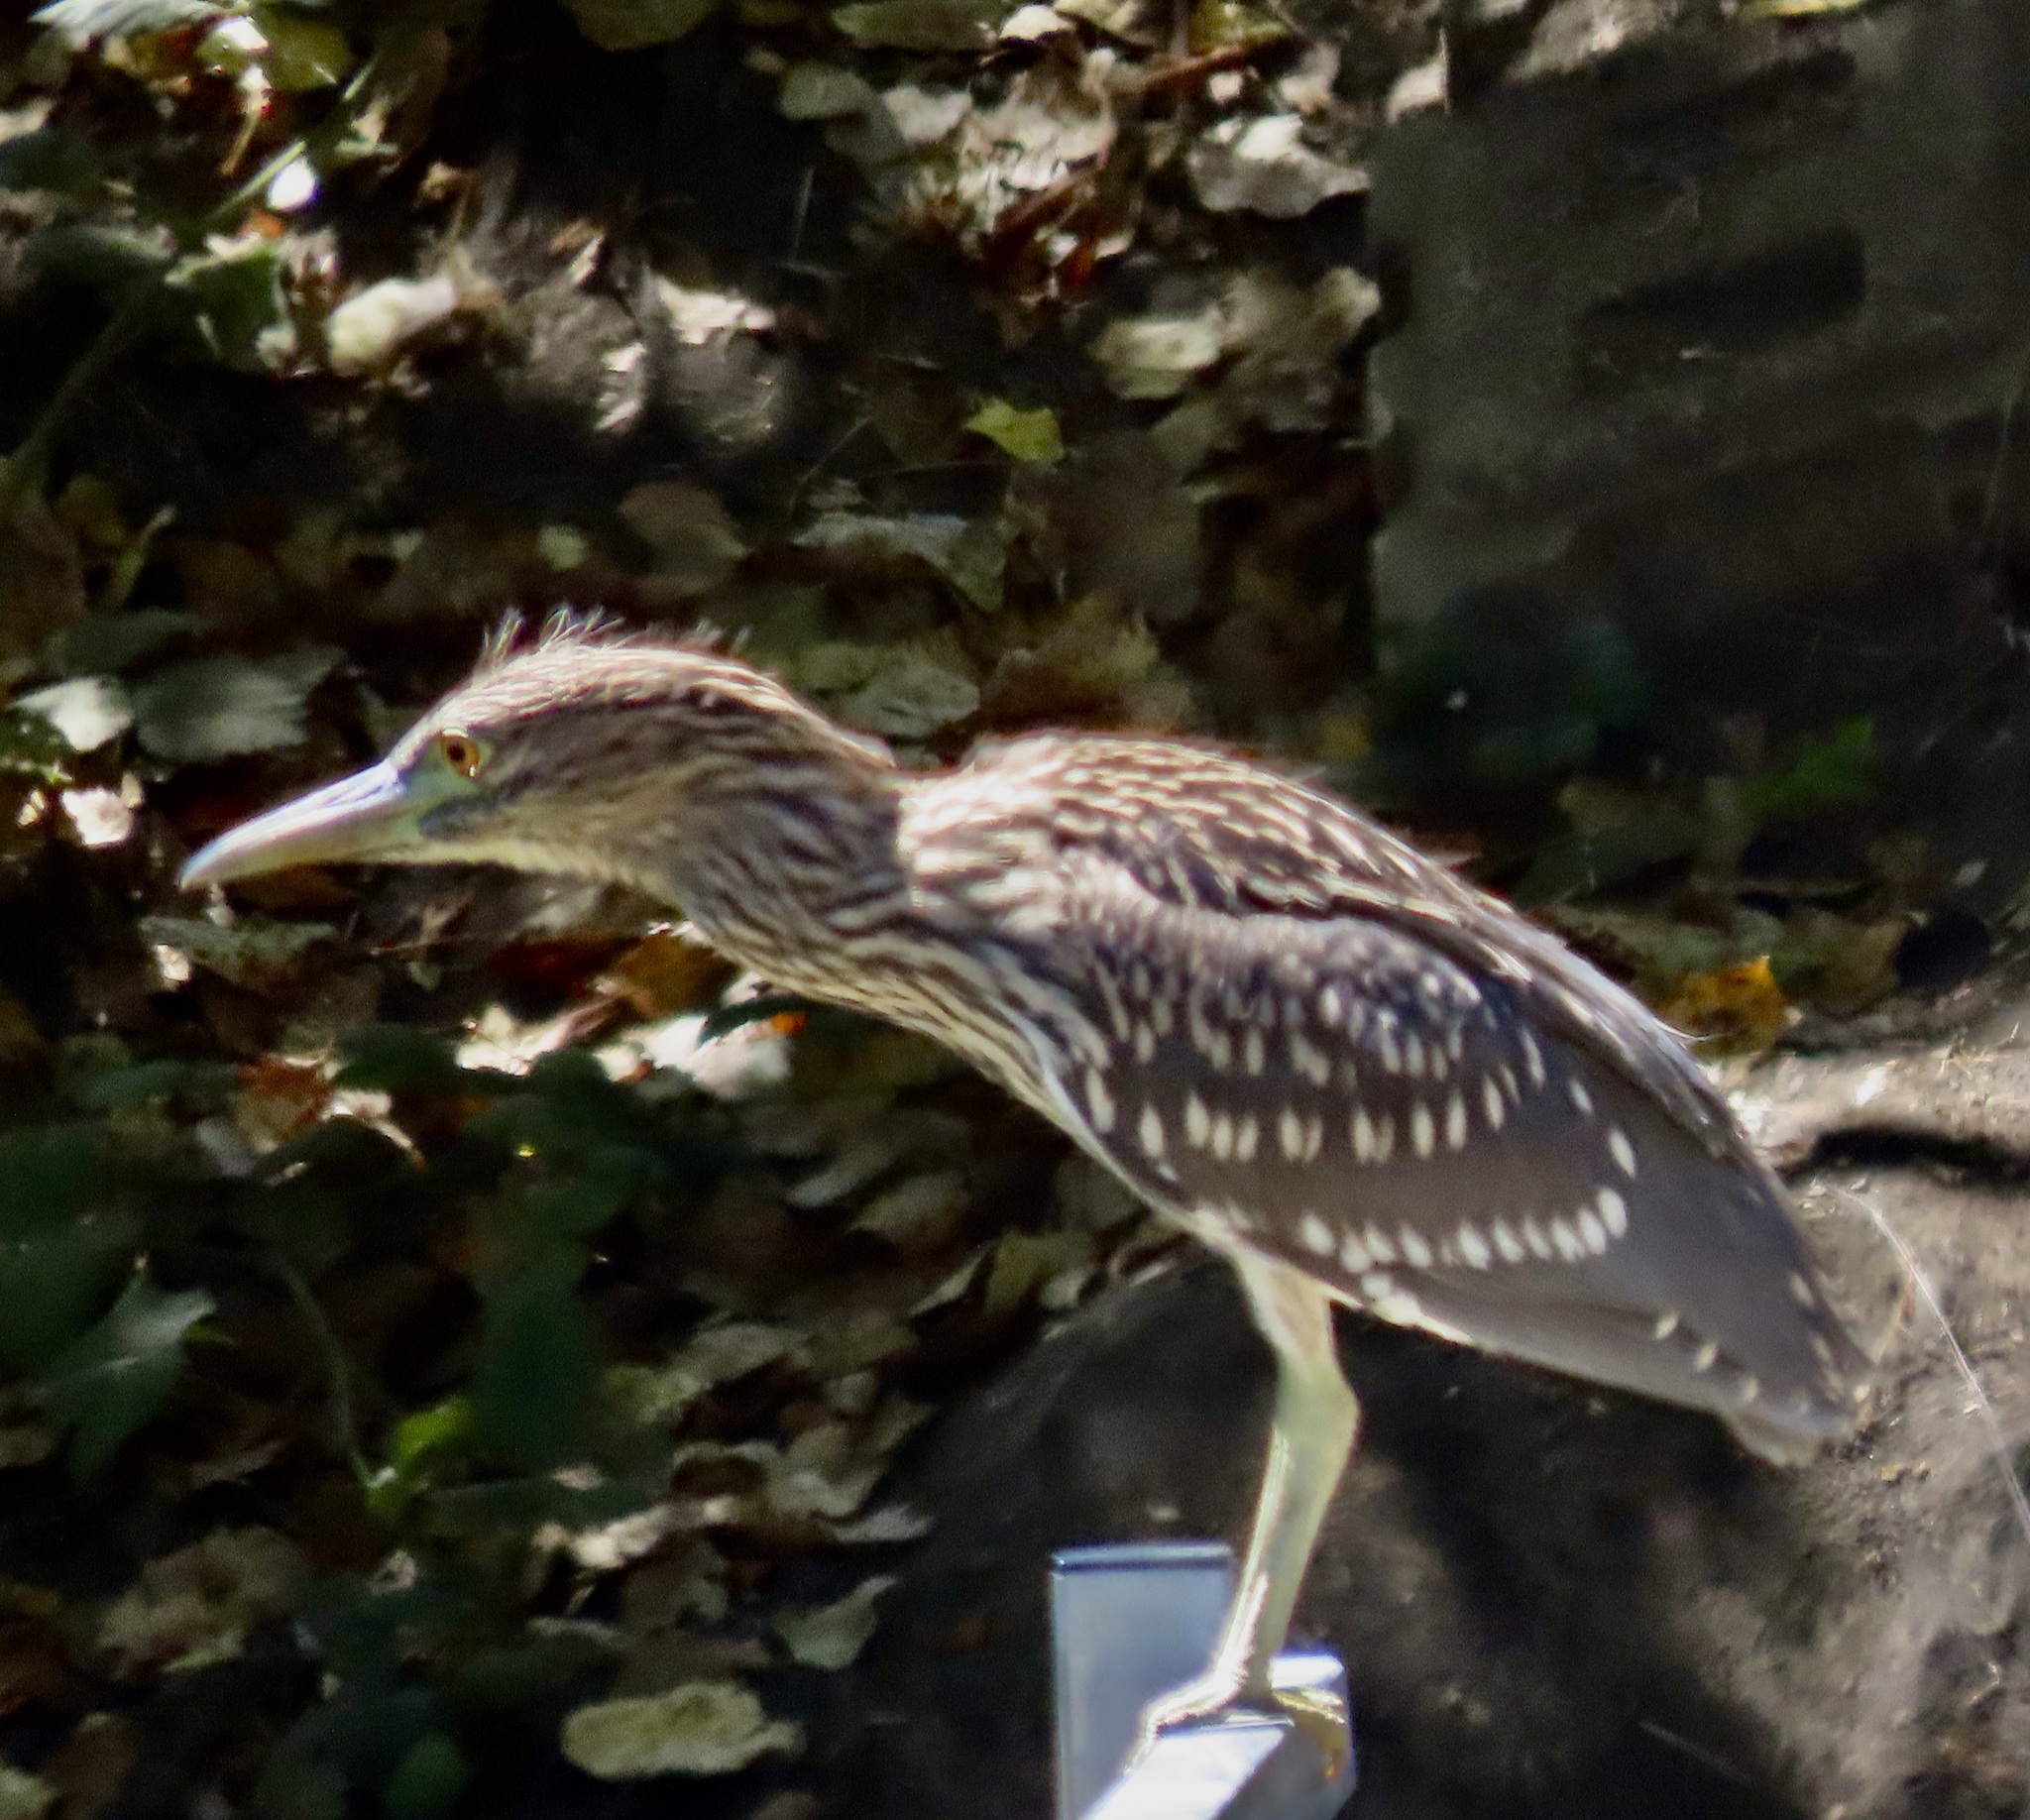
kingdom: Animalia
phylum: Chordata
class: Aves
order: Pelecaniformes
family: Ardeidae
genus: Nycticorax
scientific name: Nycticorax nycticorax
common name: Black-crowned night heron
